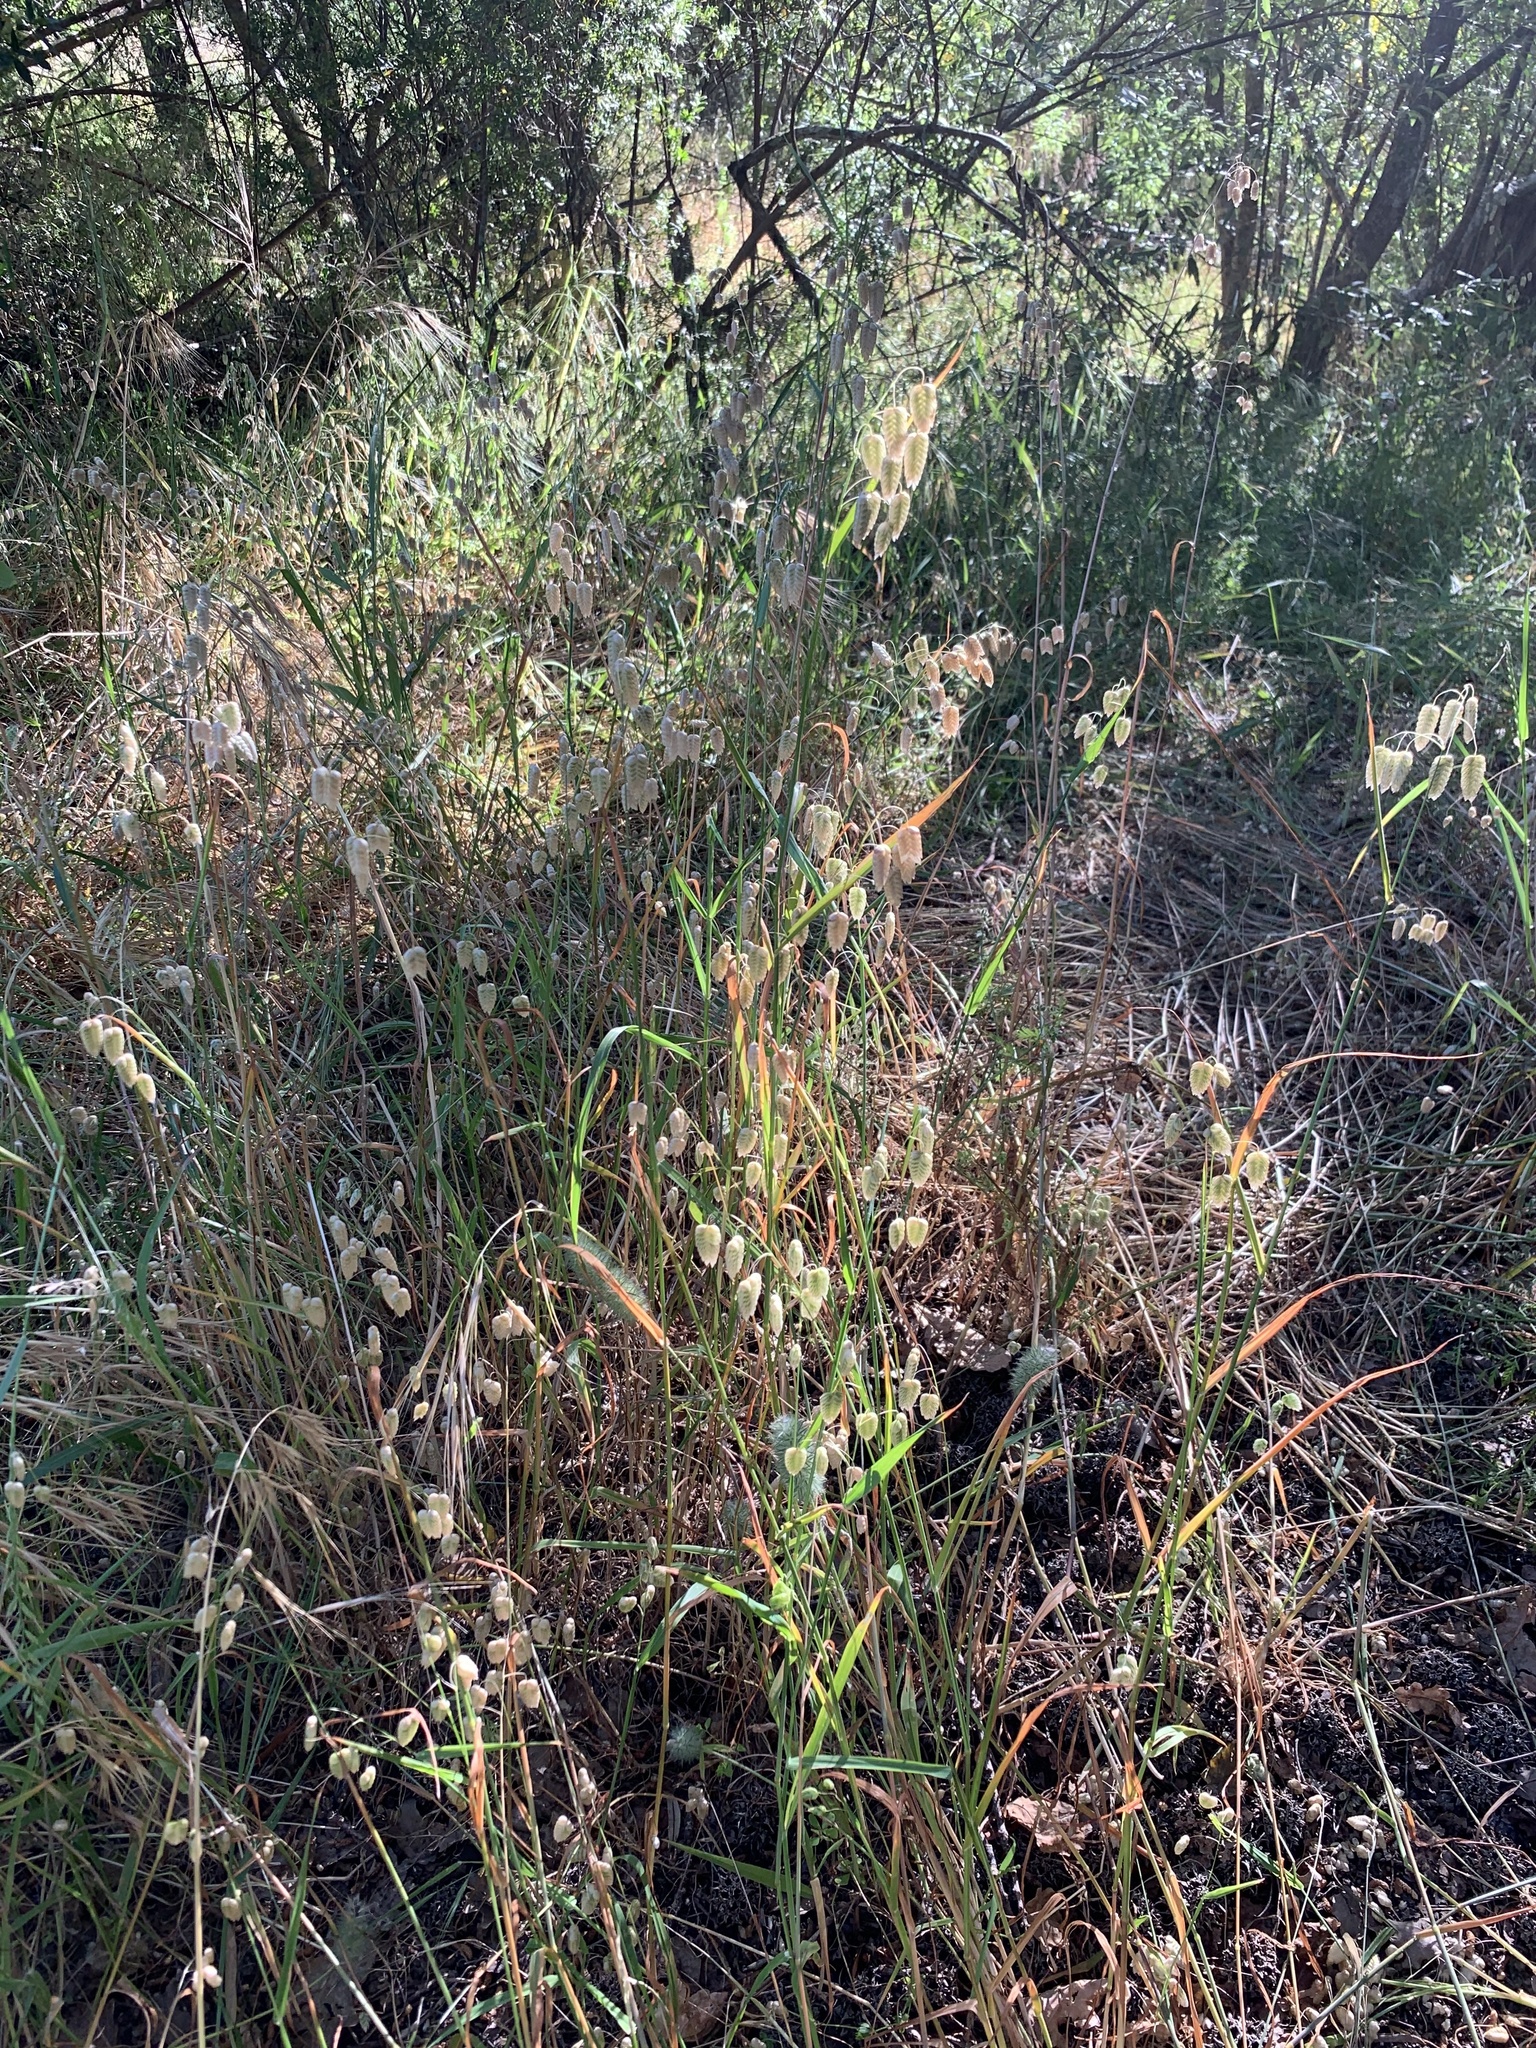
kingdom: Plantae
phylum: Tracheophyta
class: Liliopsida
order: Poales
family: Poaceae
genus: Briza
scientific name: Briza maxima
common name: Big quakinggrass
